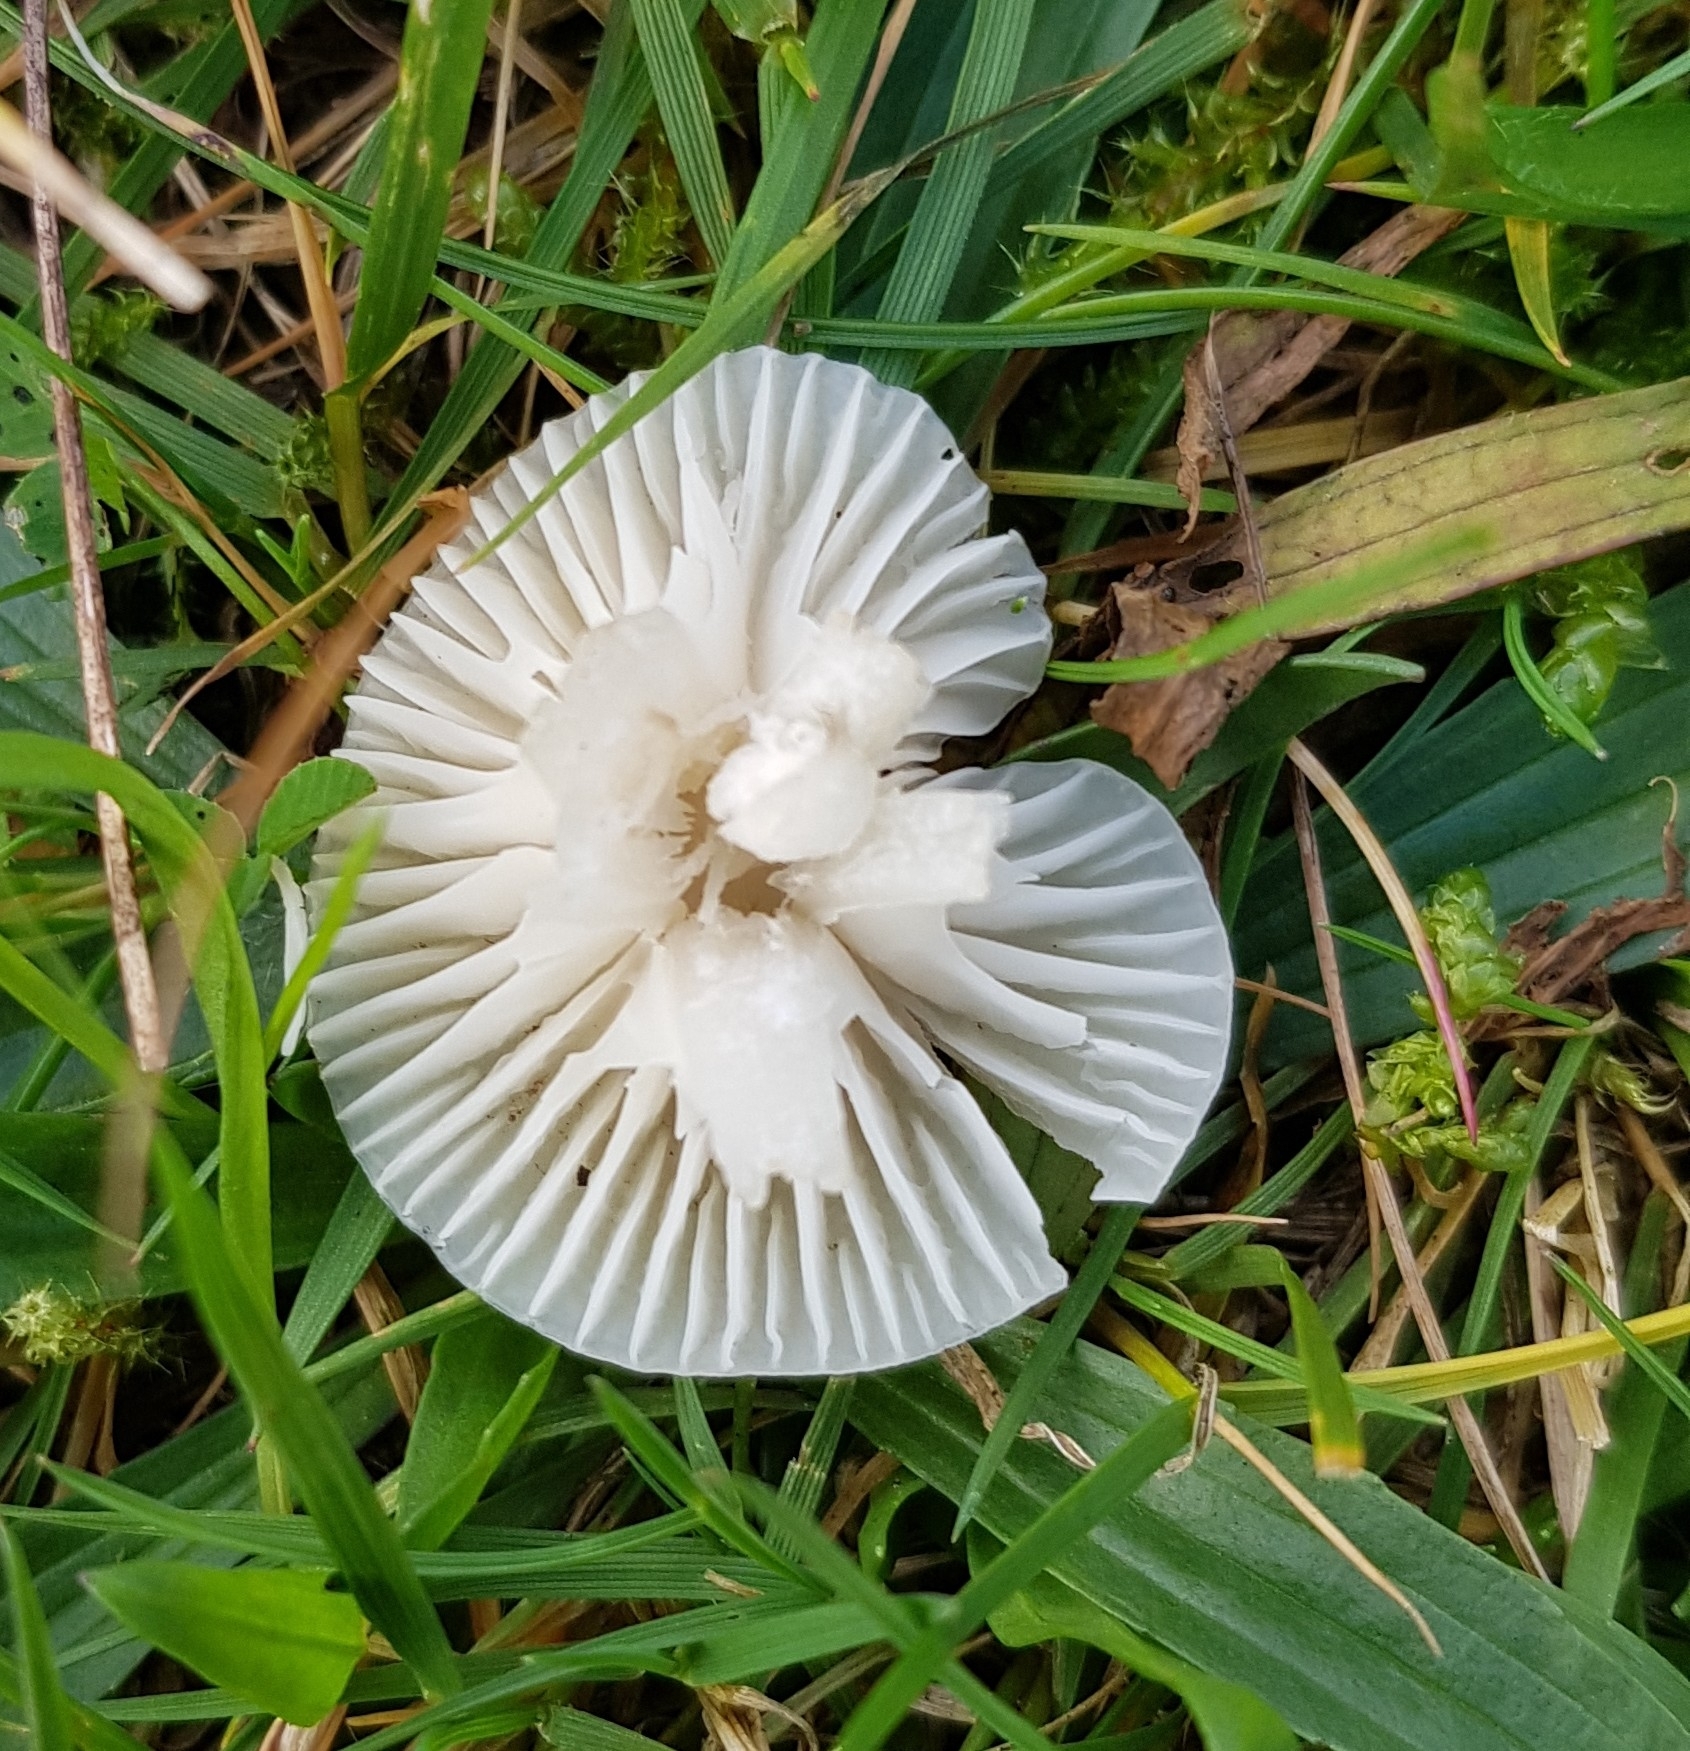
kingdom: Fungi
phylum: Basidiomycota
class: Agaricomycetes
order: Agaricales
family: Hygrophoraceae
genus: Cuphophyllus
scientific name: Cuphophyllus virgineus
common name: Snowy waxcap
